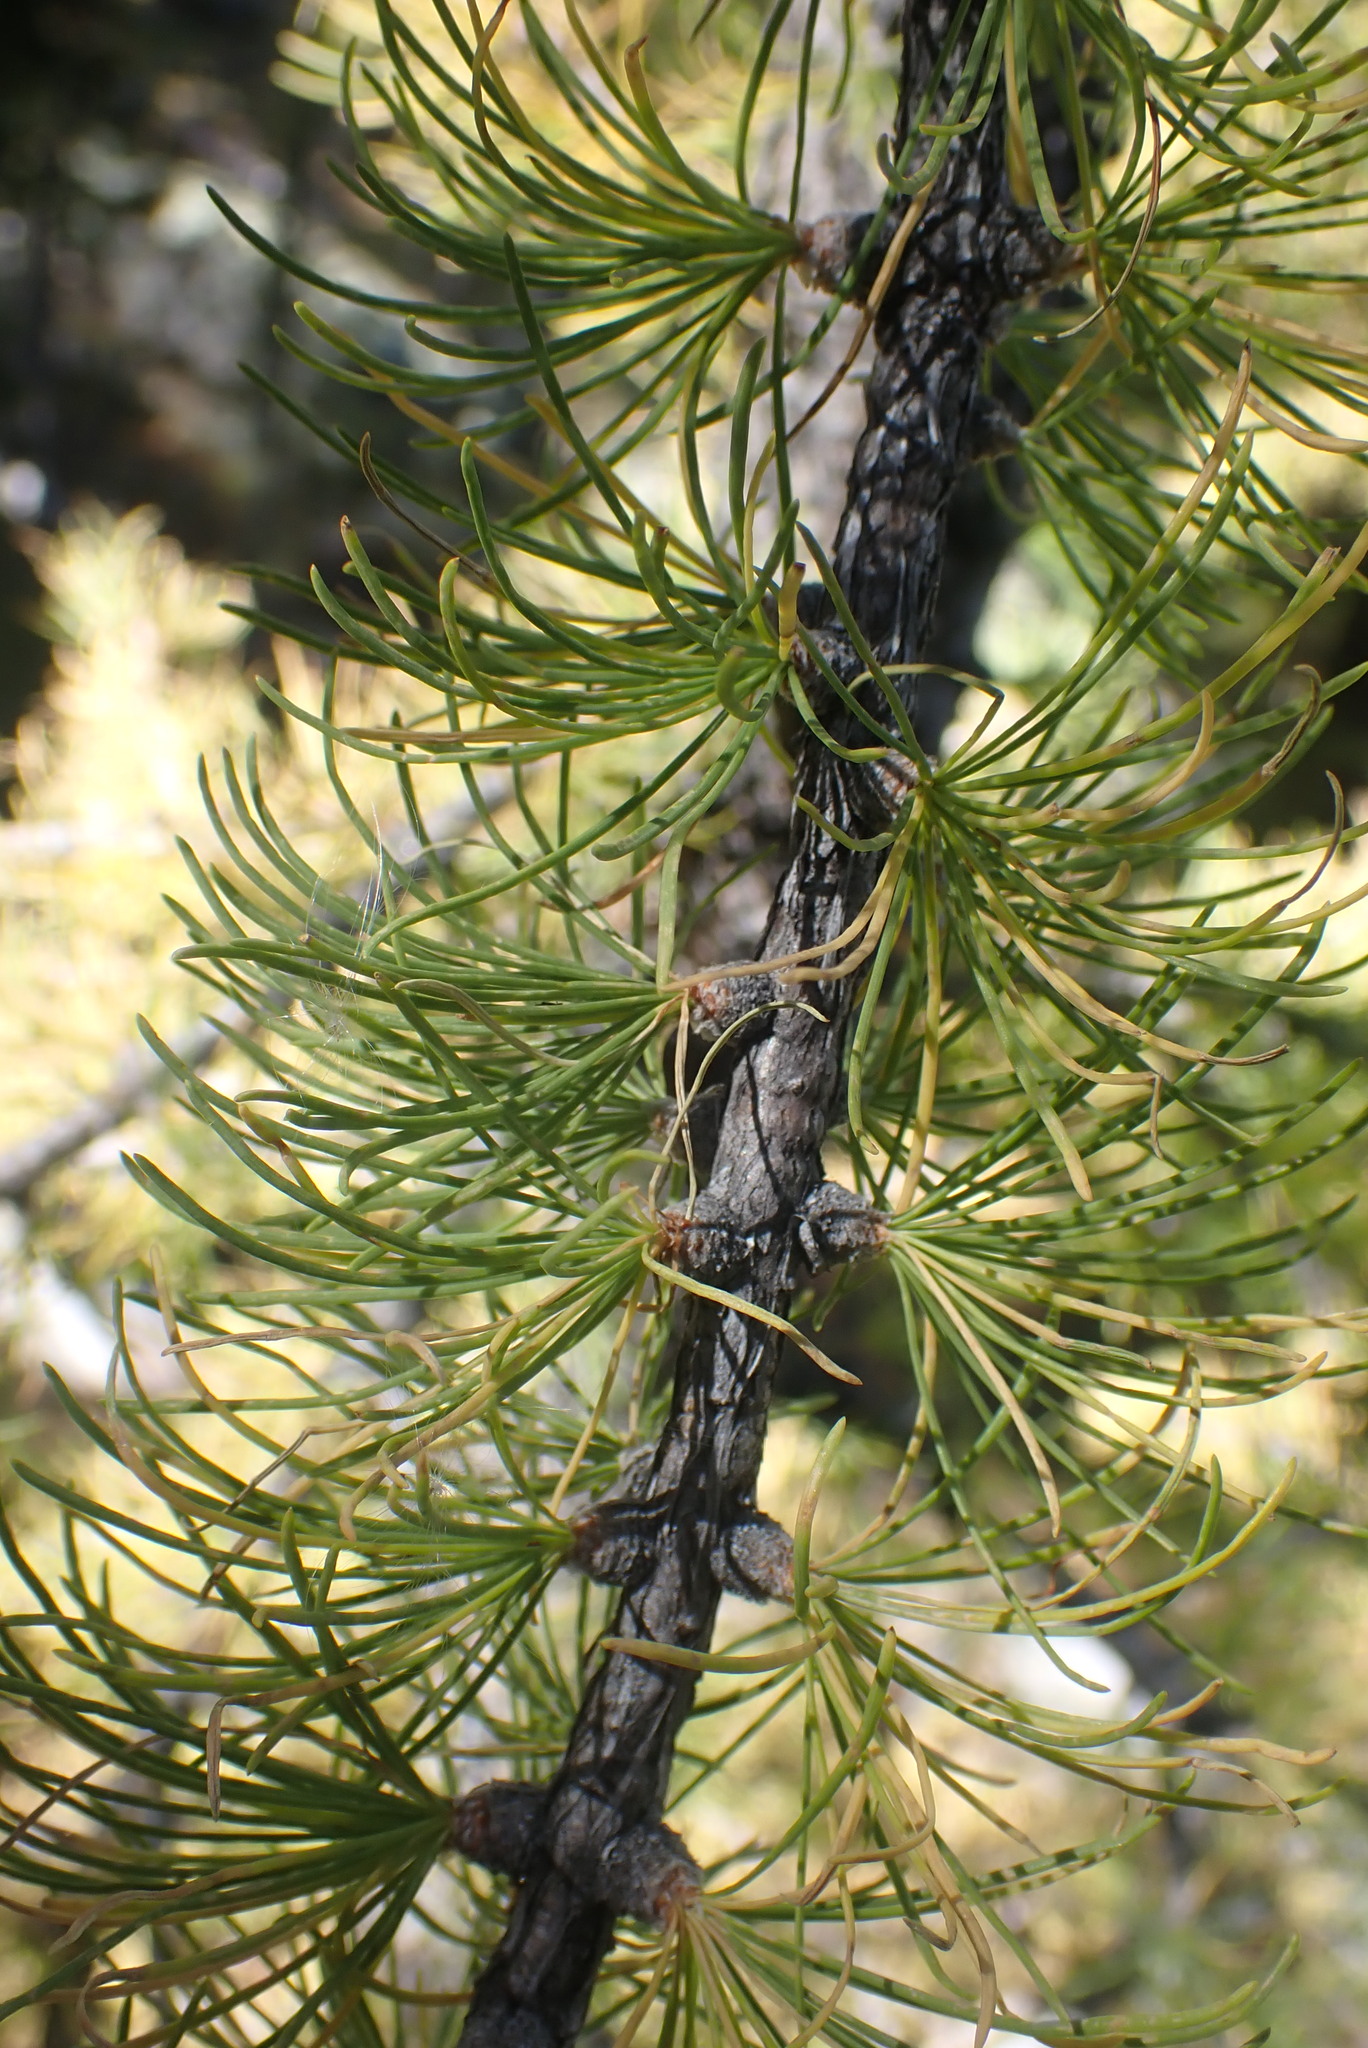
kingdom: Plantae
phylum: Tracheophyta
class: Pinopsida
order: Pinales
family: Pinaceae
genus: Larix
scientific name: Larix lyallii
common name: Alpine larch
